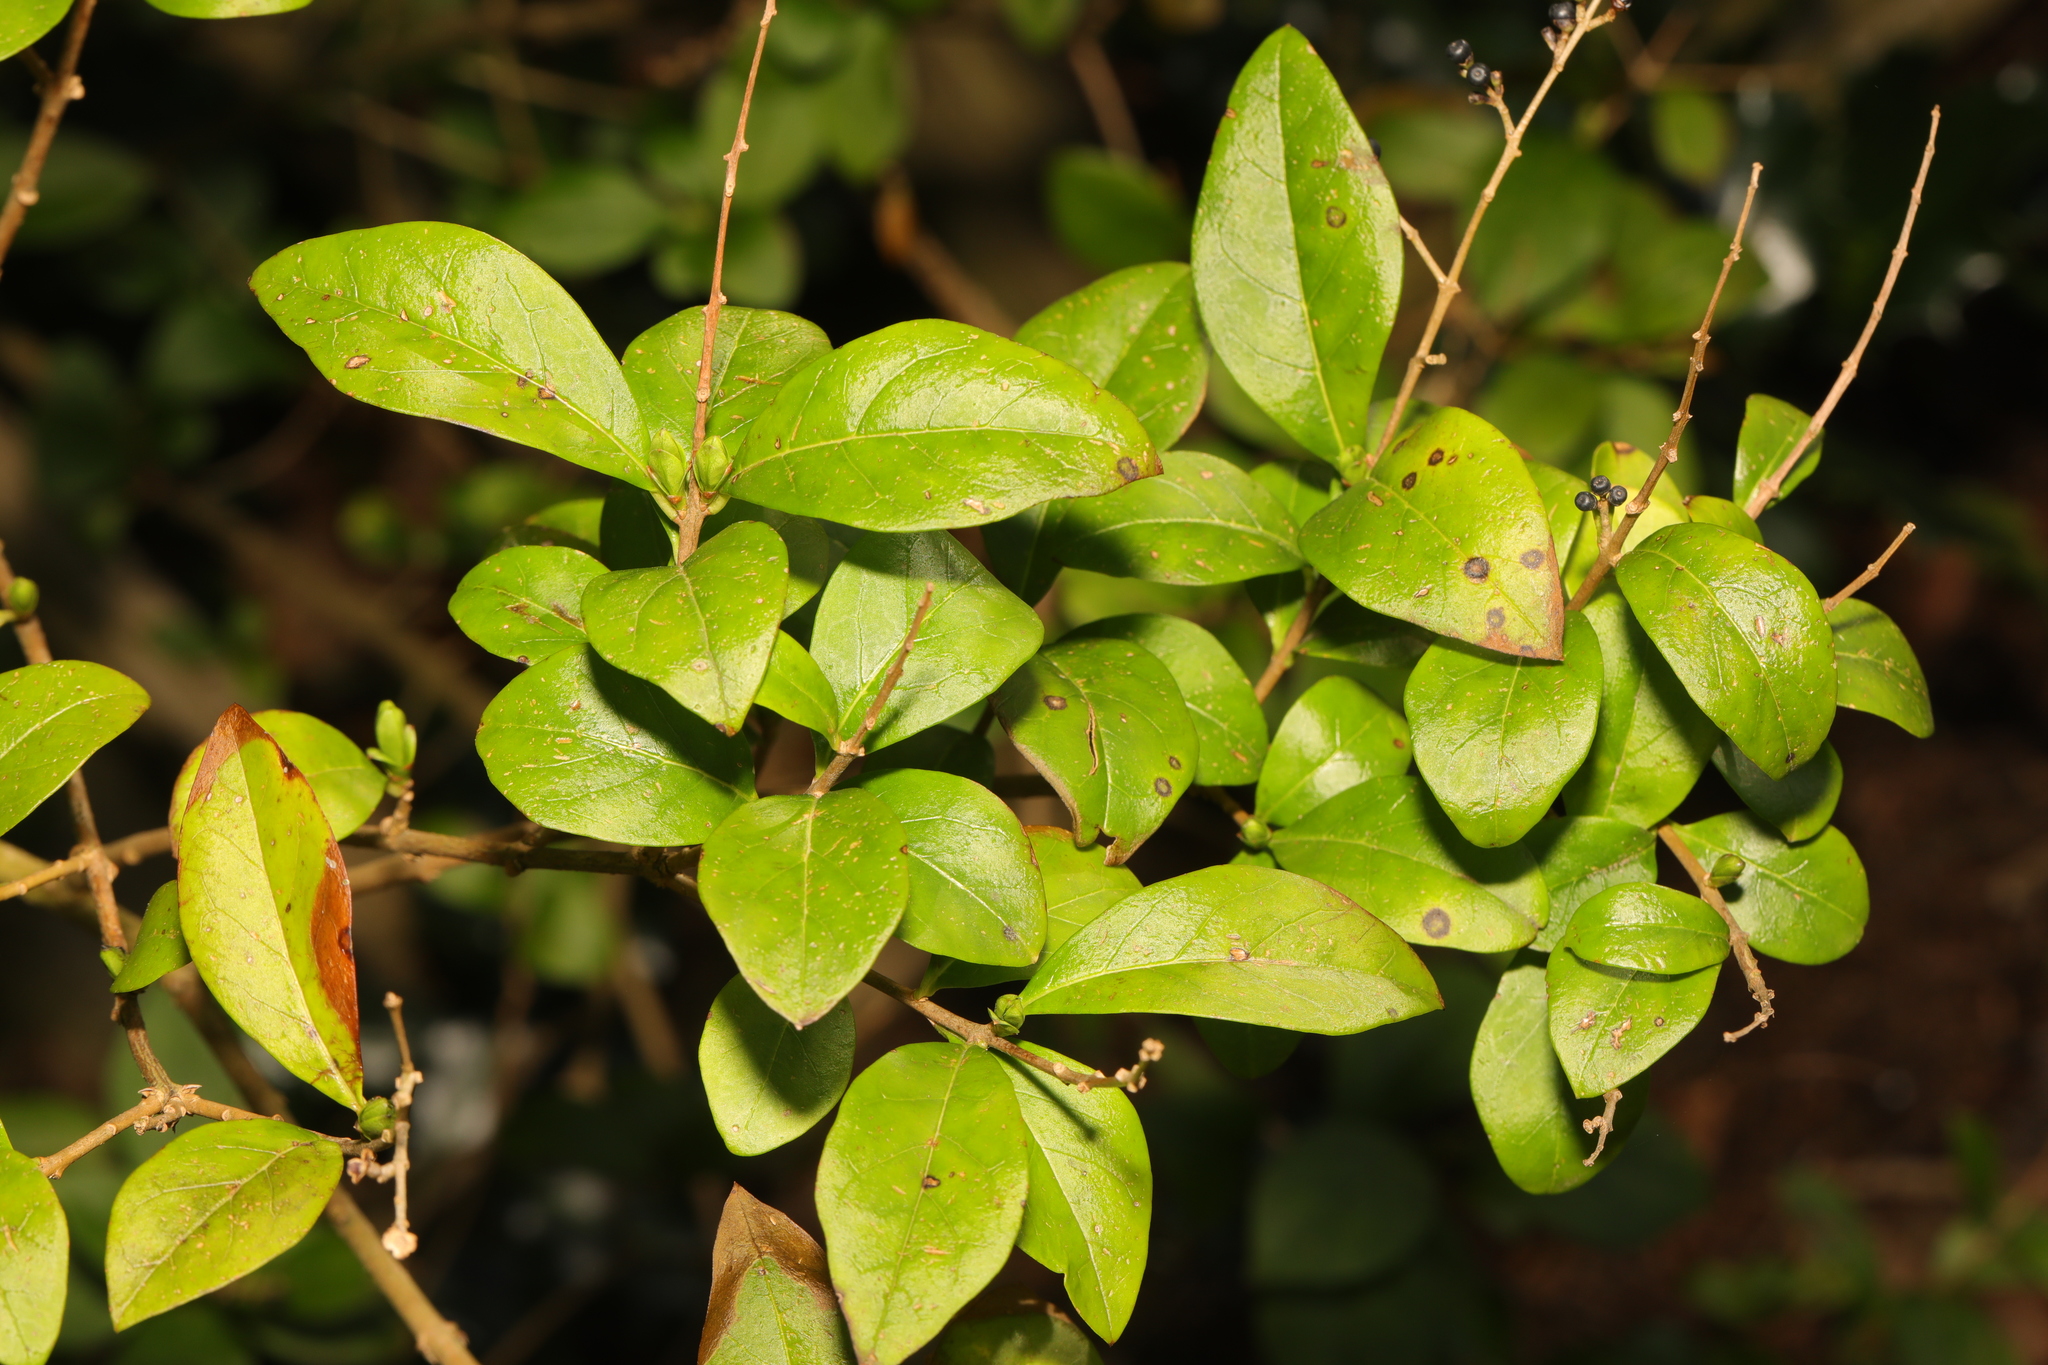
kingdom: Plantae
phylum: Tracheophyta
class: Magnoliopsida
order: Lamiales
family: Oleaceae
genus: Ligustrum
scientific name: Ligustrum ovalifolium
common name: California privet
